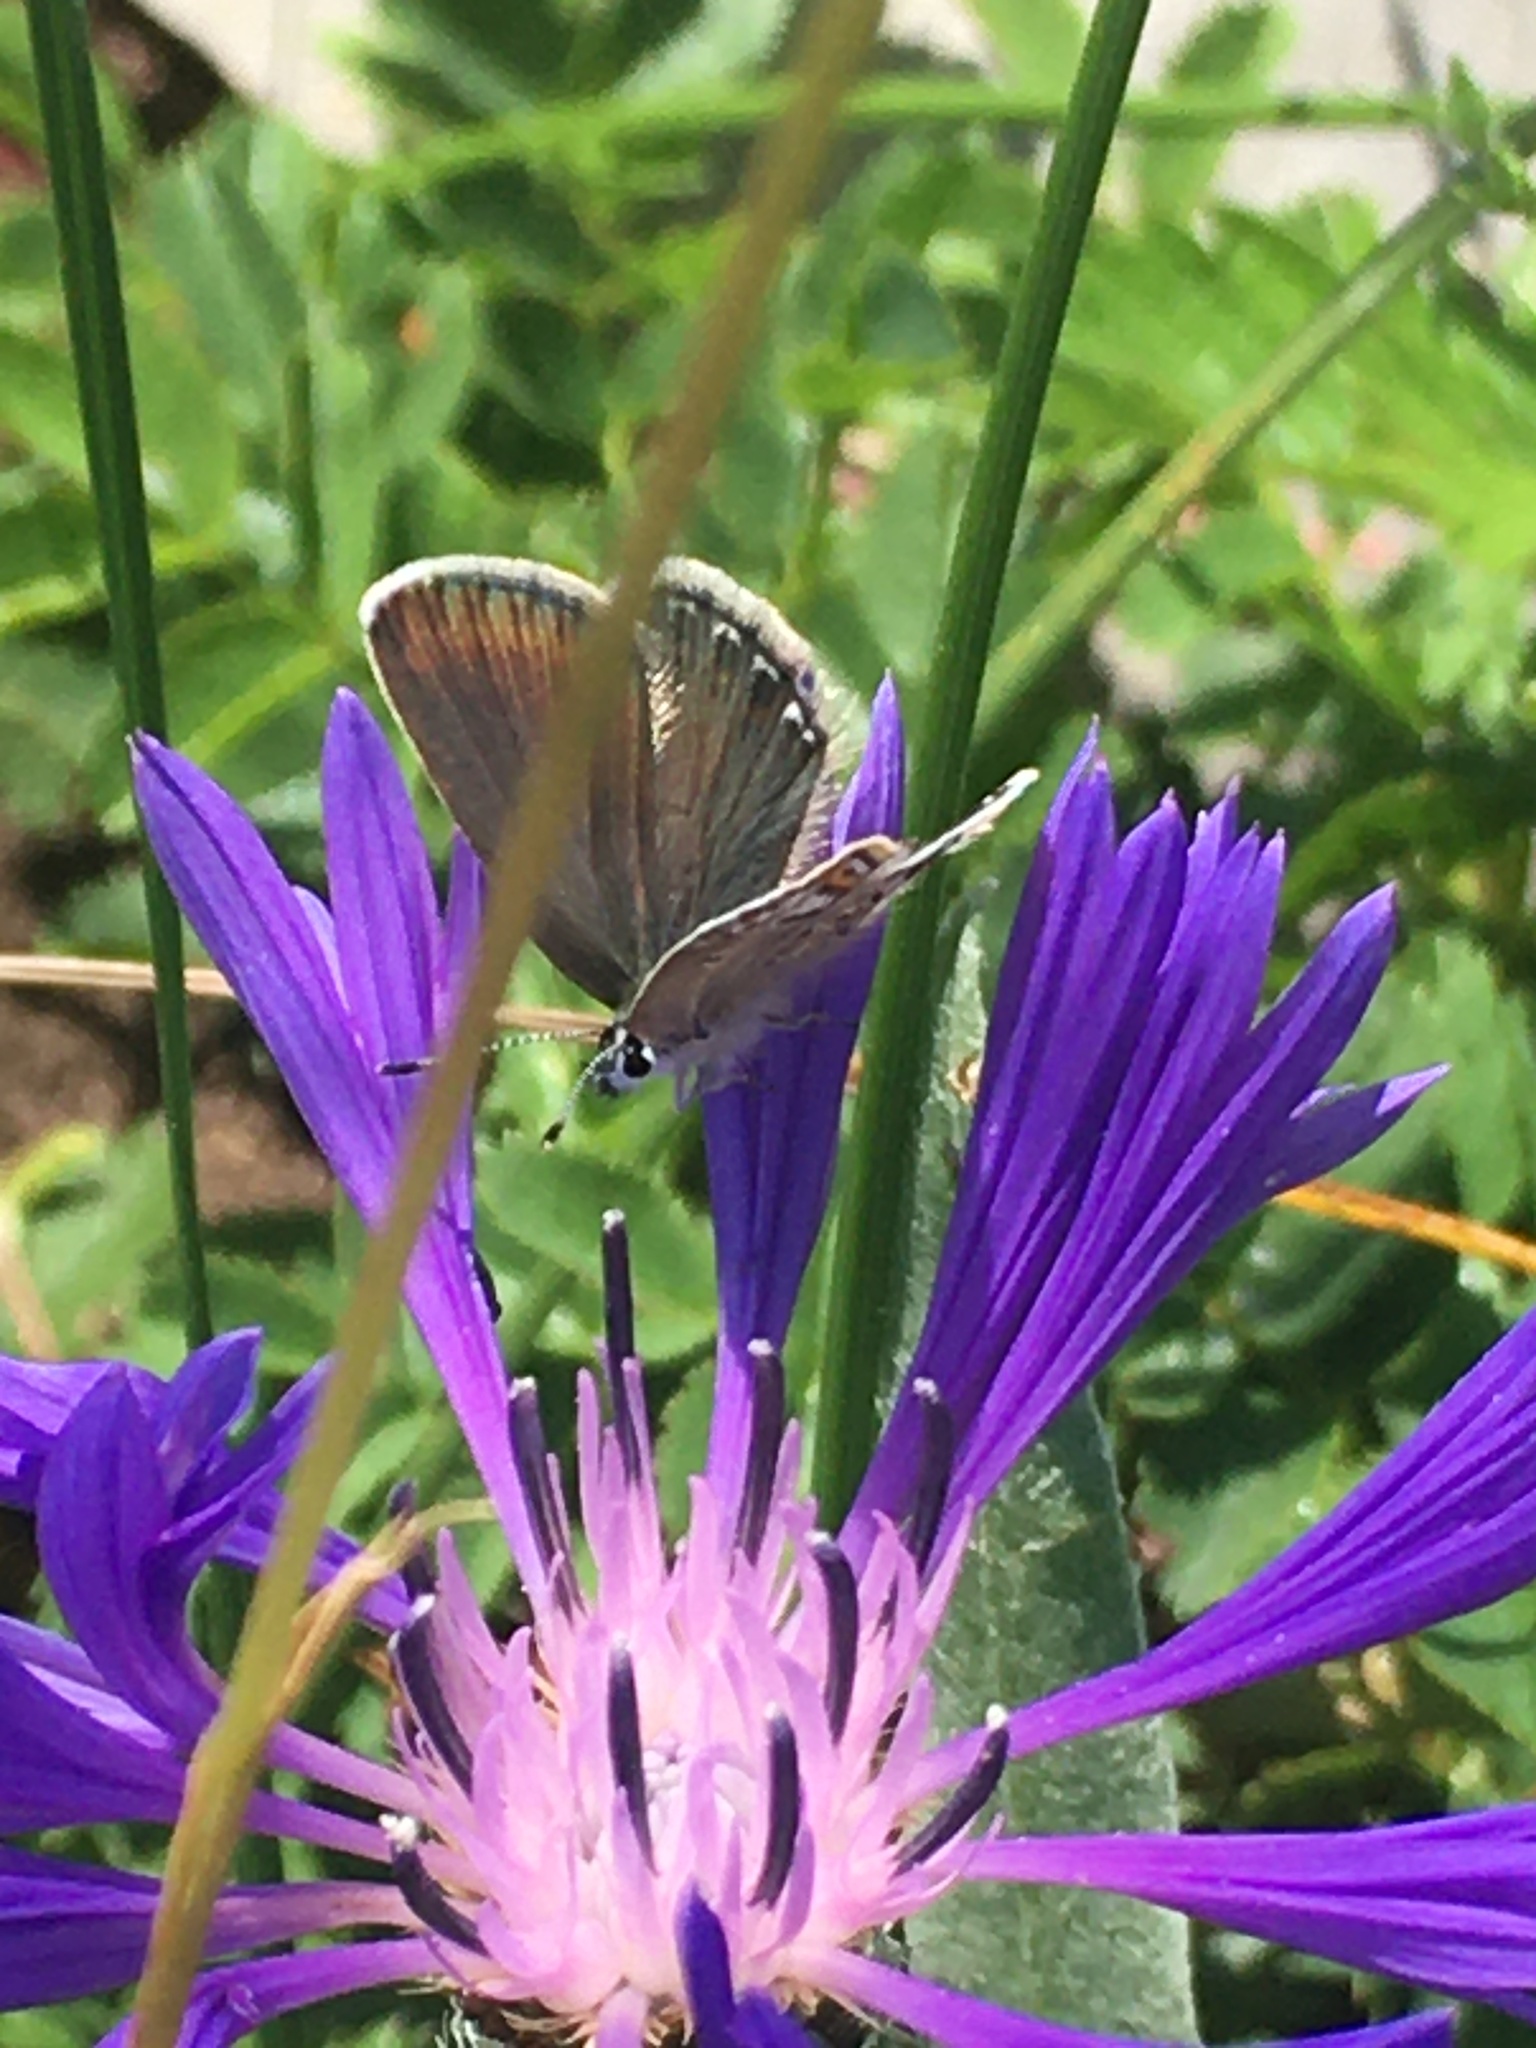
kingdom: Animalia
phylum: Arthropoda
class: Insecta
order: Lepidoptera
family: Lycaenidae
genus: Plebejus
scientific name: Plebejus argus
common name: Silver-studded blue
